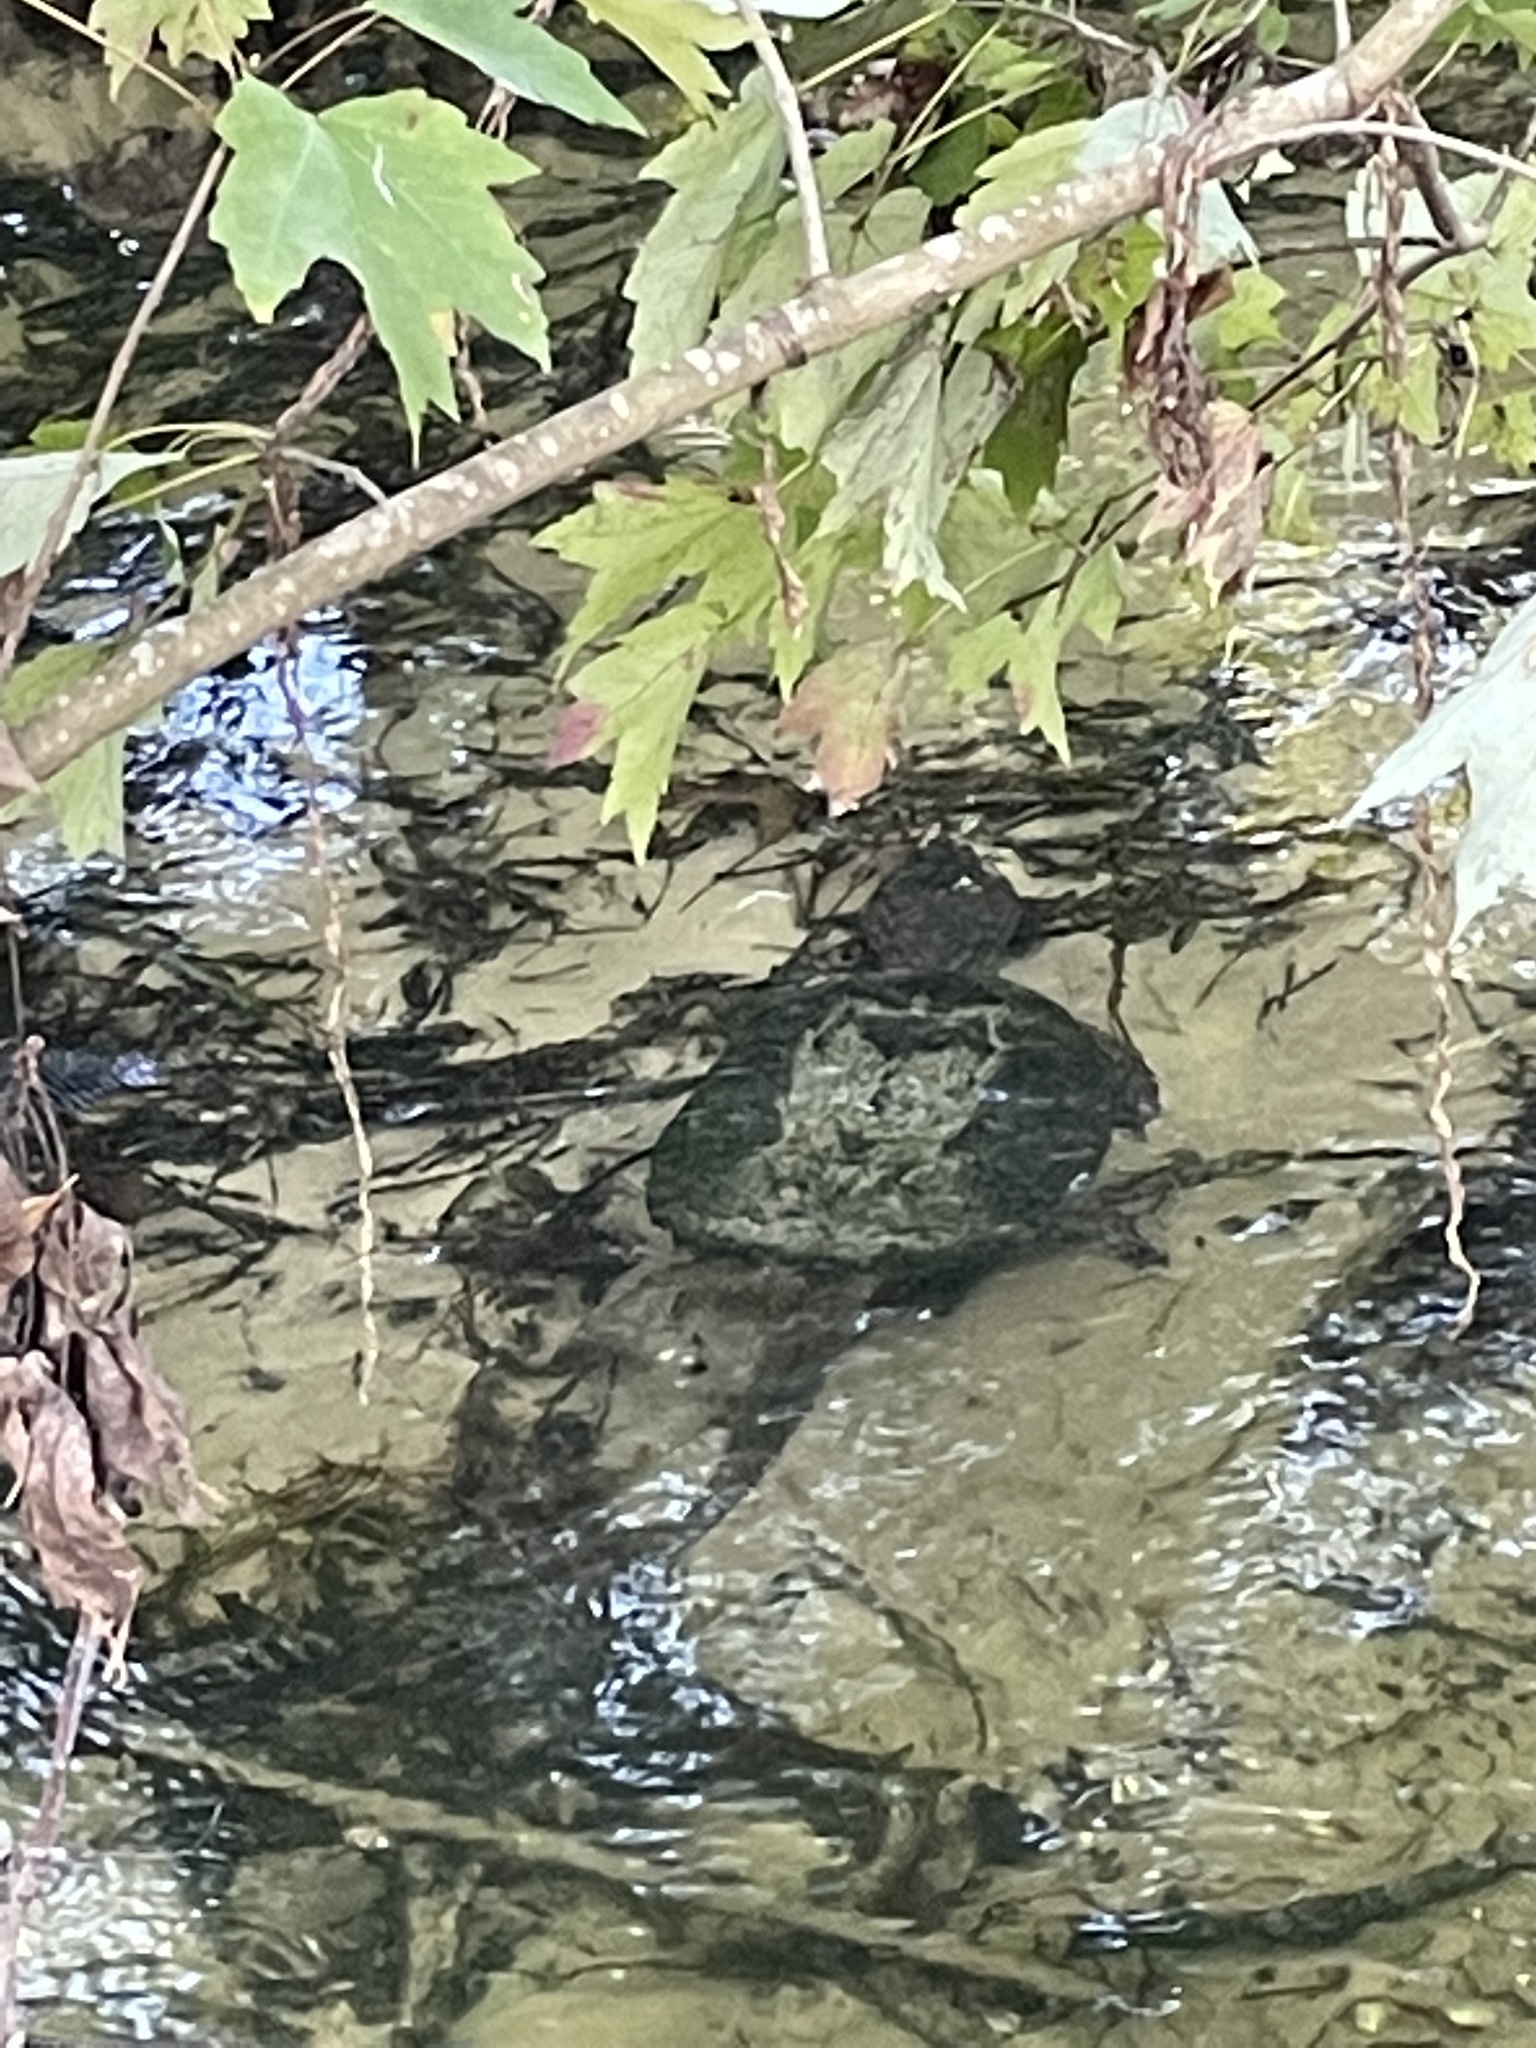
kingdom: Animalia
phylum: Chordata
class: Testudines
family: Chelydridae
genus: Chelydra
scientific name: Chelydra serpentina
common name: Common snapping turtle
